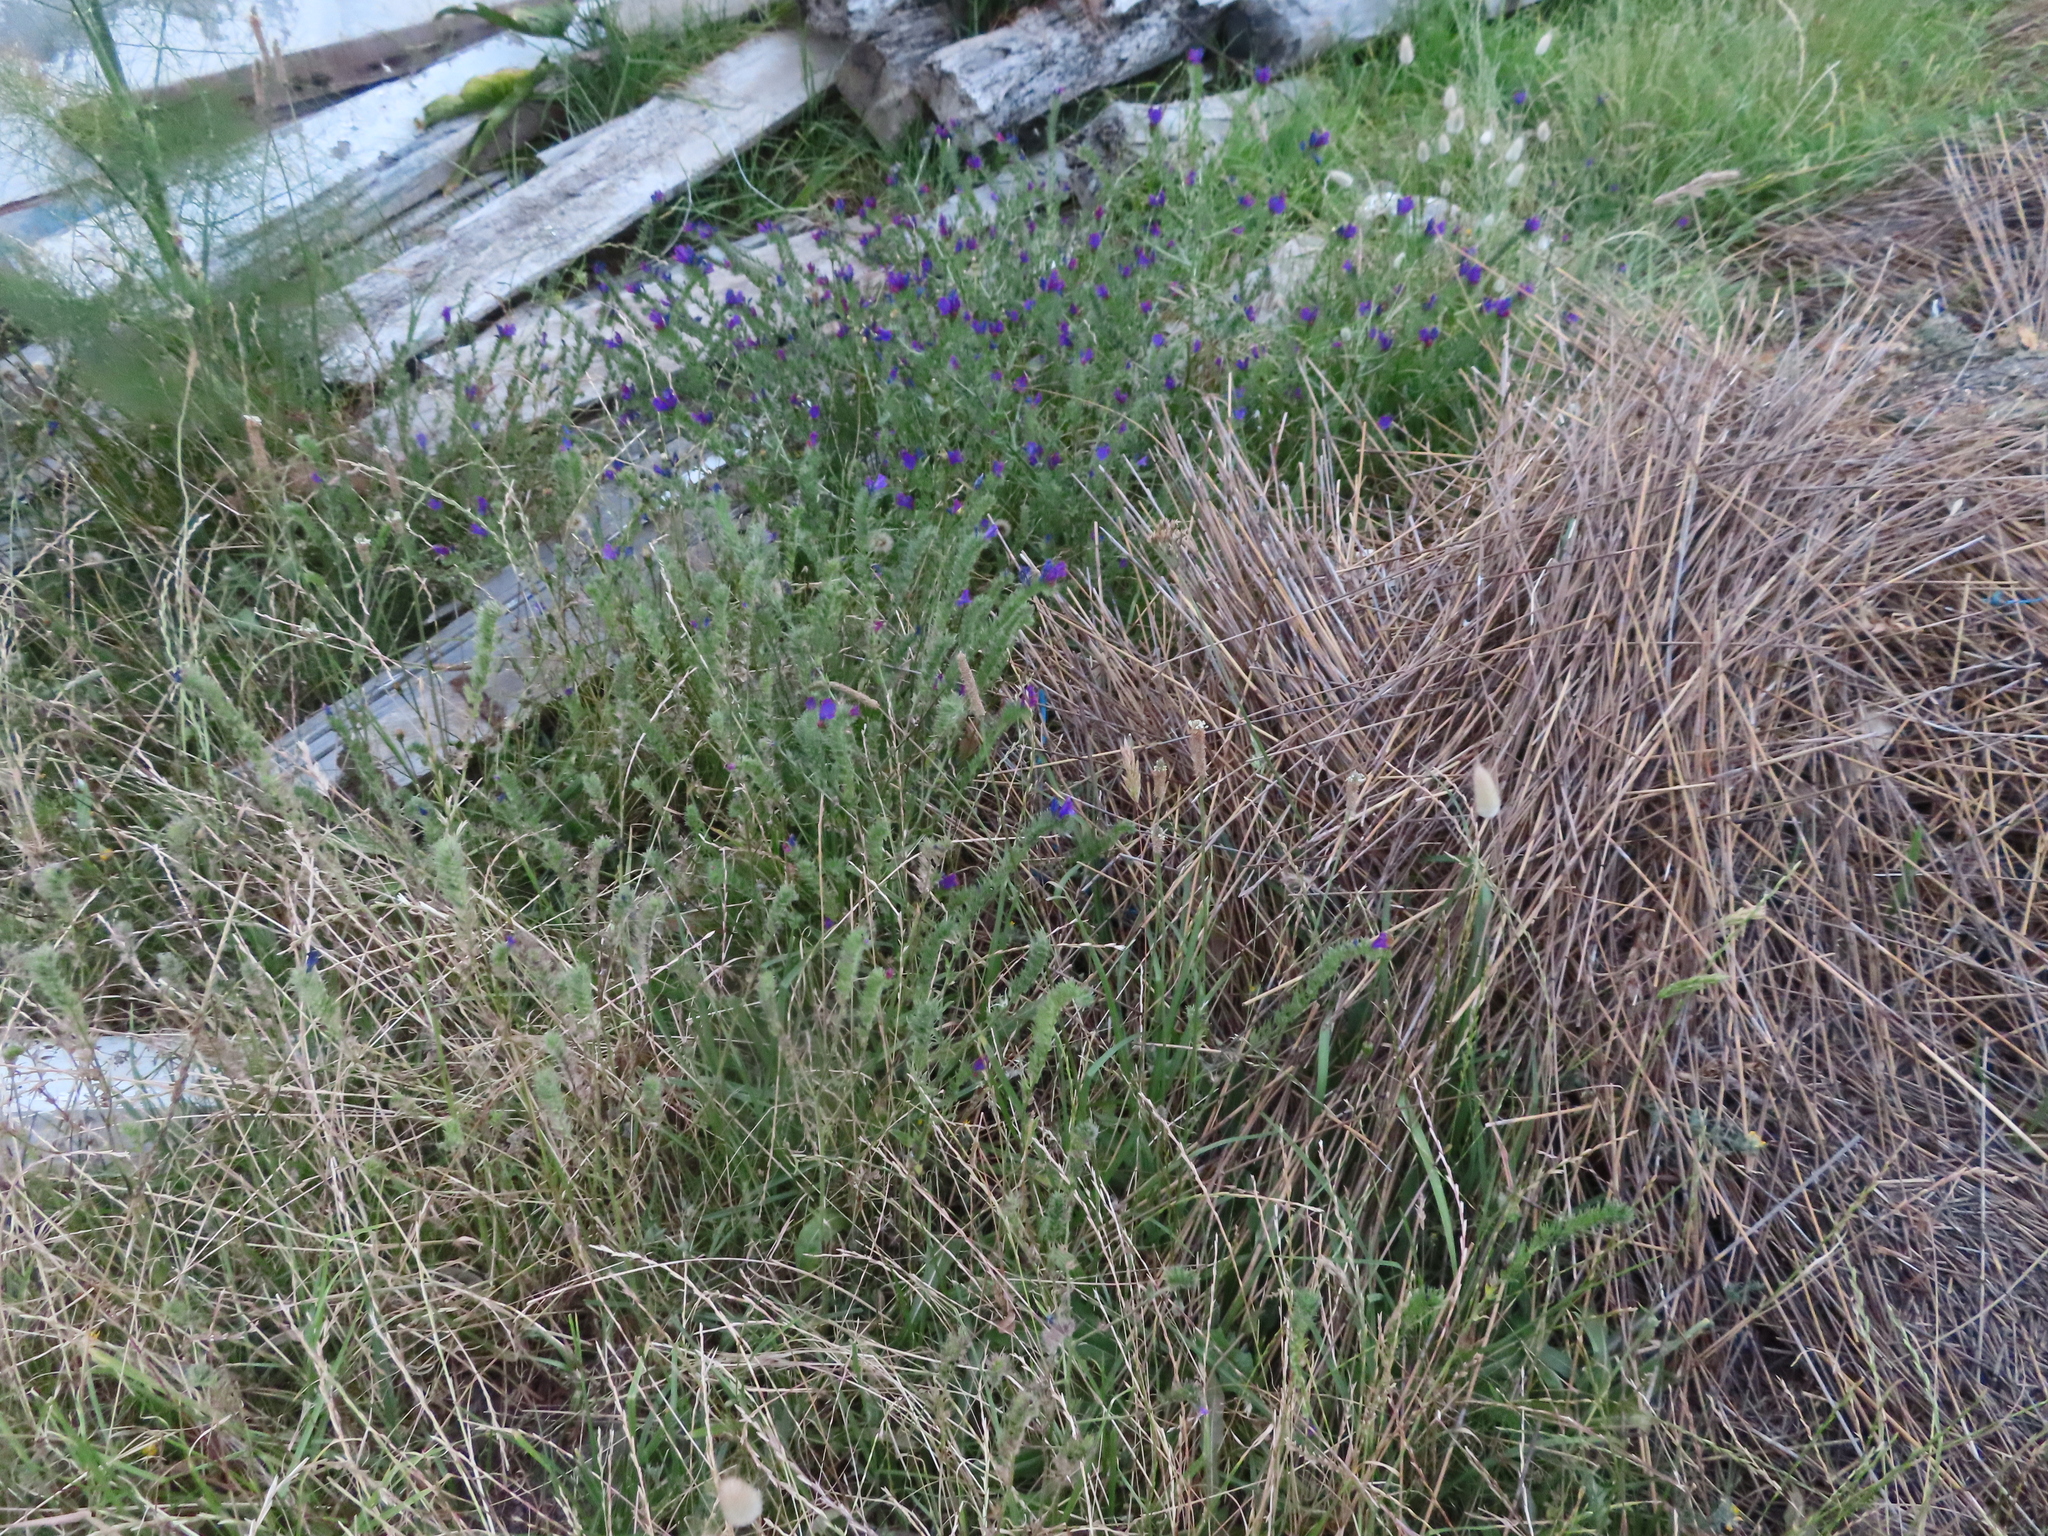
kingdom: Plantae
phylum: Tracheophyta
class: Magnoliopsida
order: Boraginales
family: Boraginaceae
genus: Echium
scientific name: Echium plantagineum
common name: Purple viper's-bugloss
